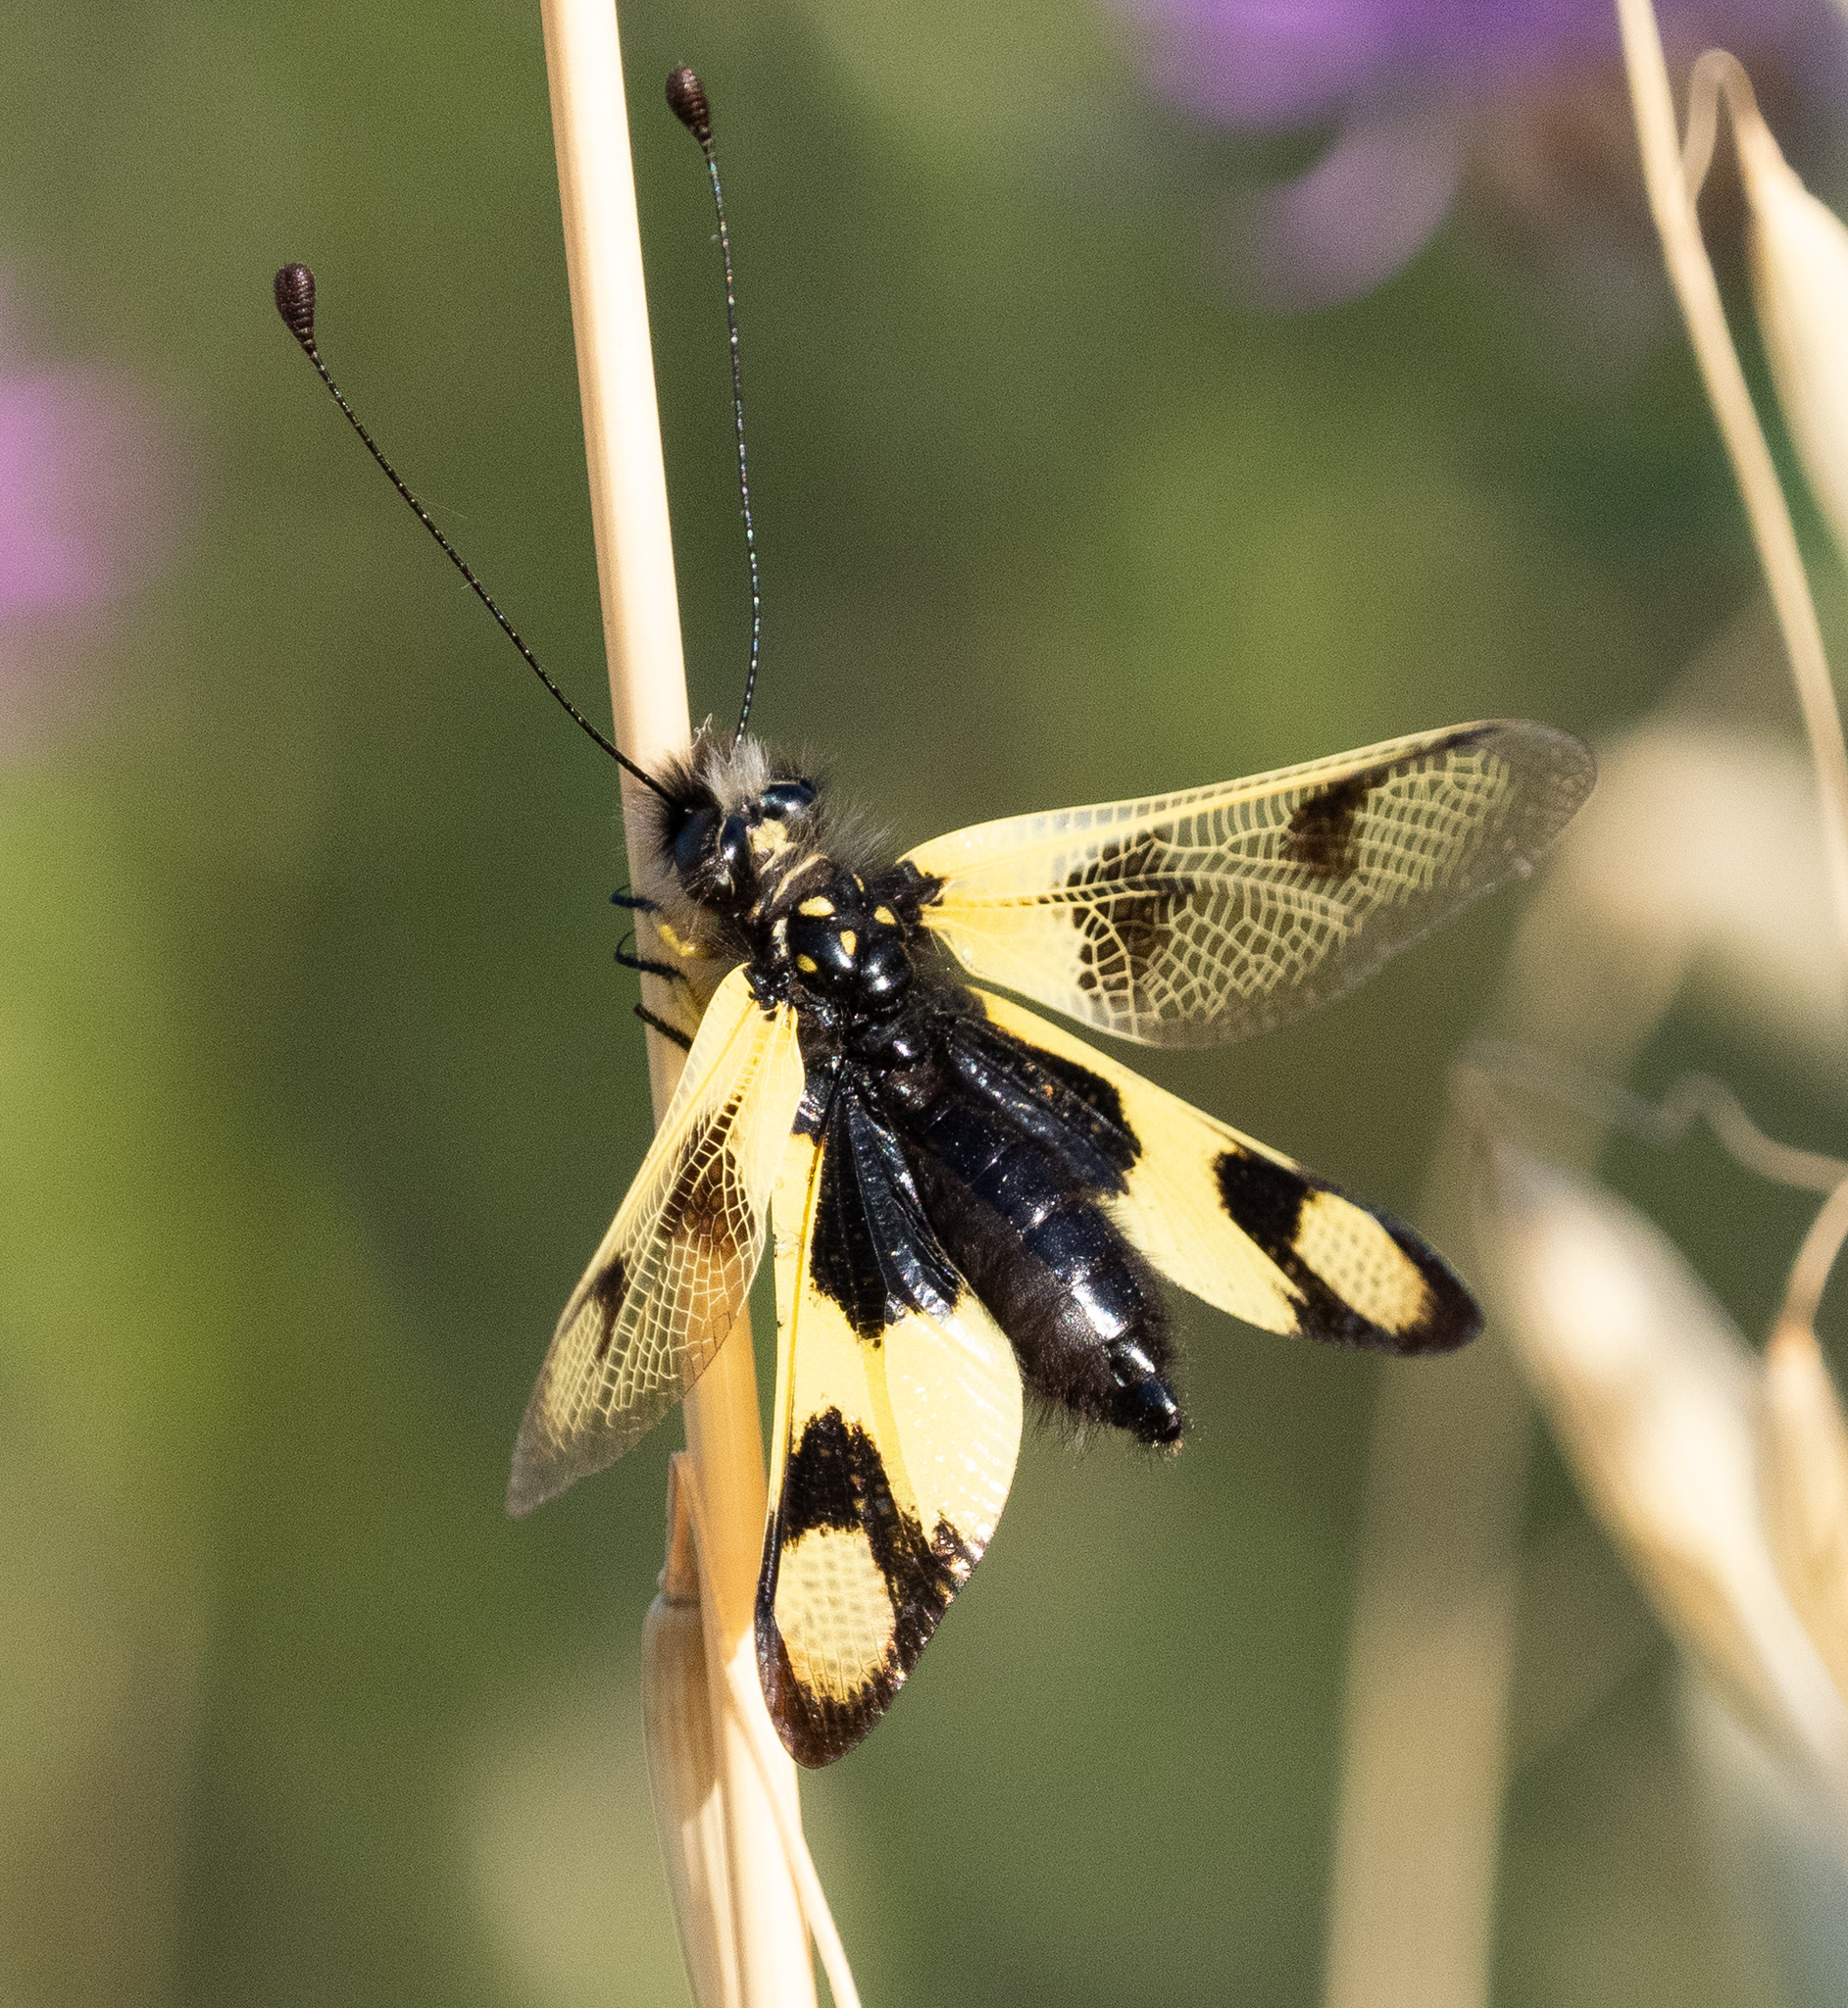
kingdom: Animalia
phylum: Arthropoda
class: Insecta
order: Neuroptera
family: Ascalaphidae
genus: Libelloides
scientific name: Libelloides macaronius
